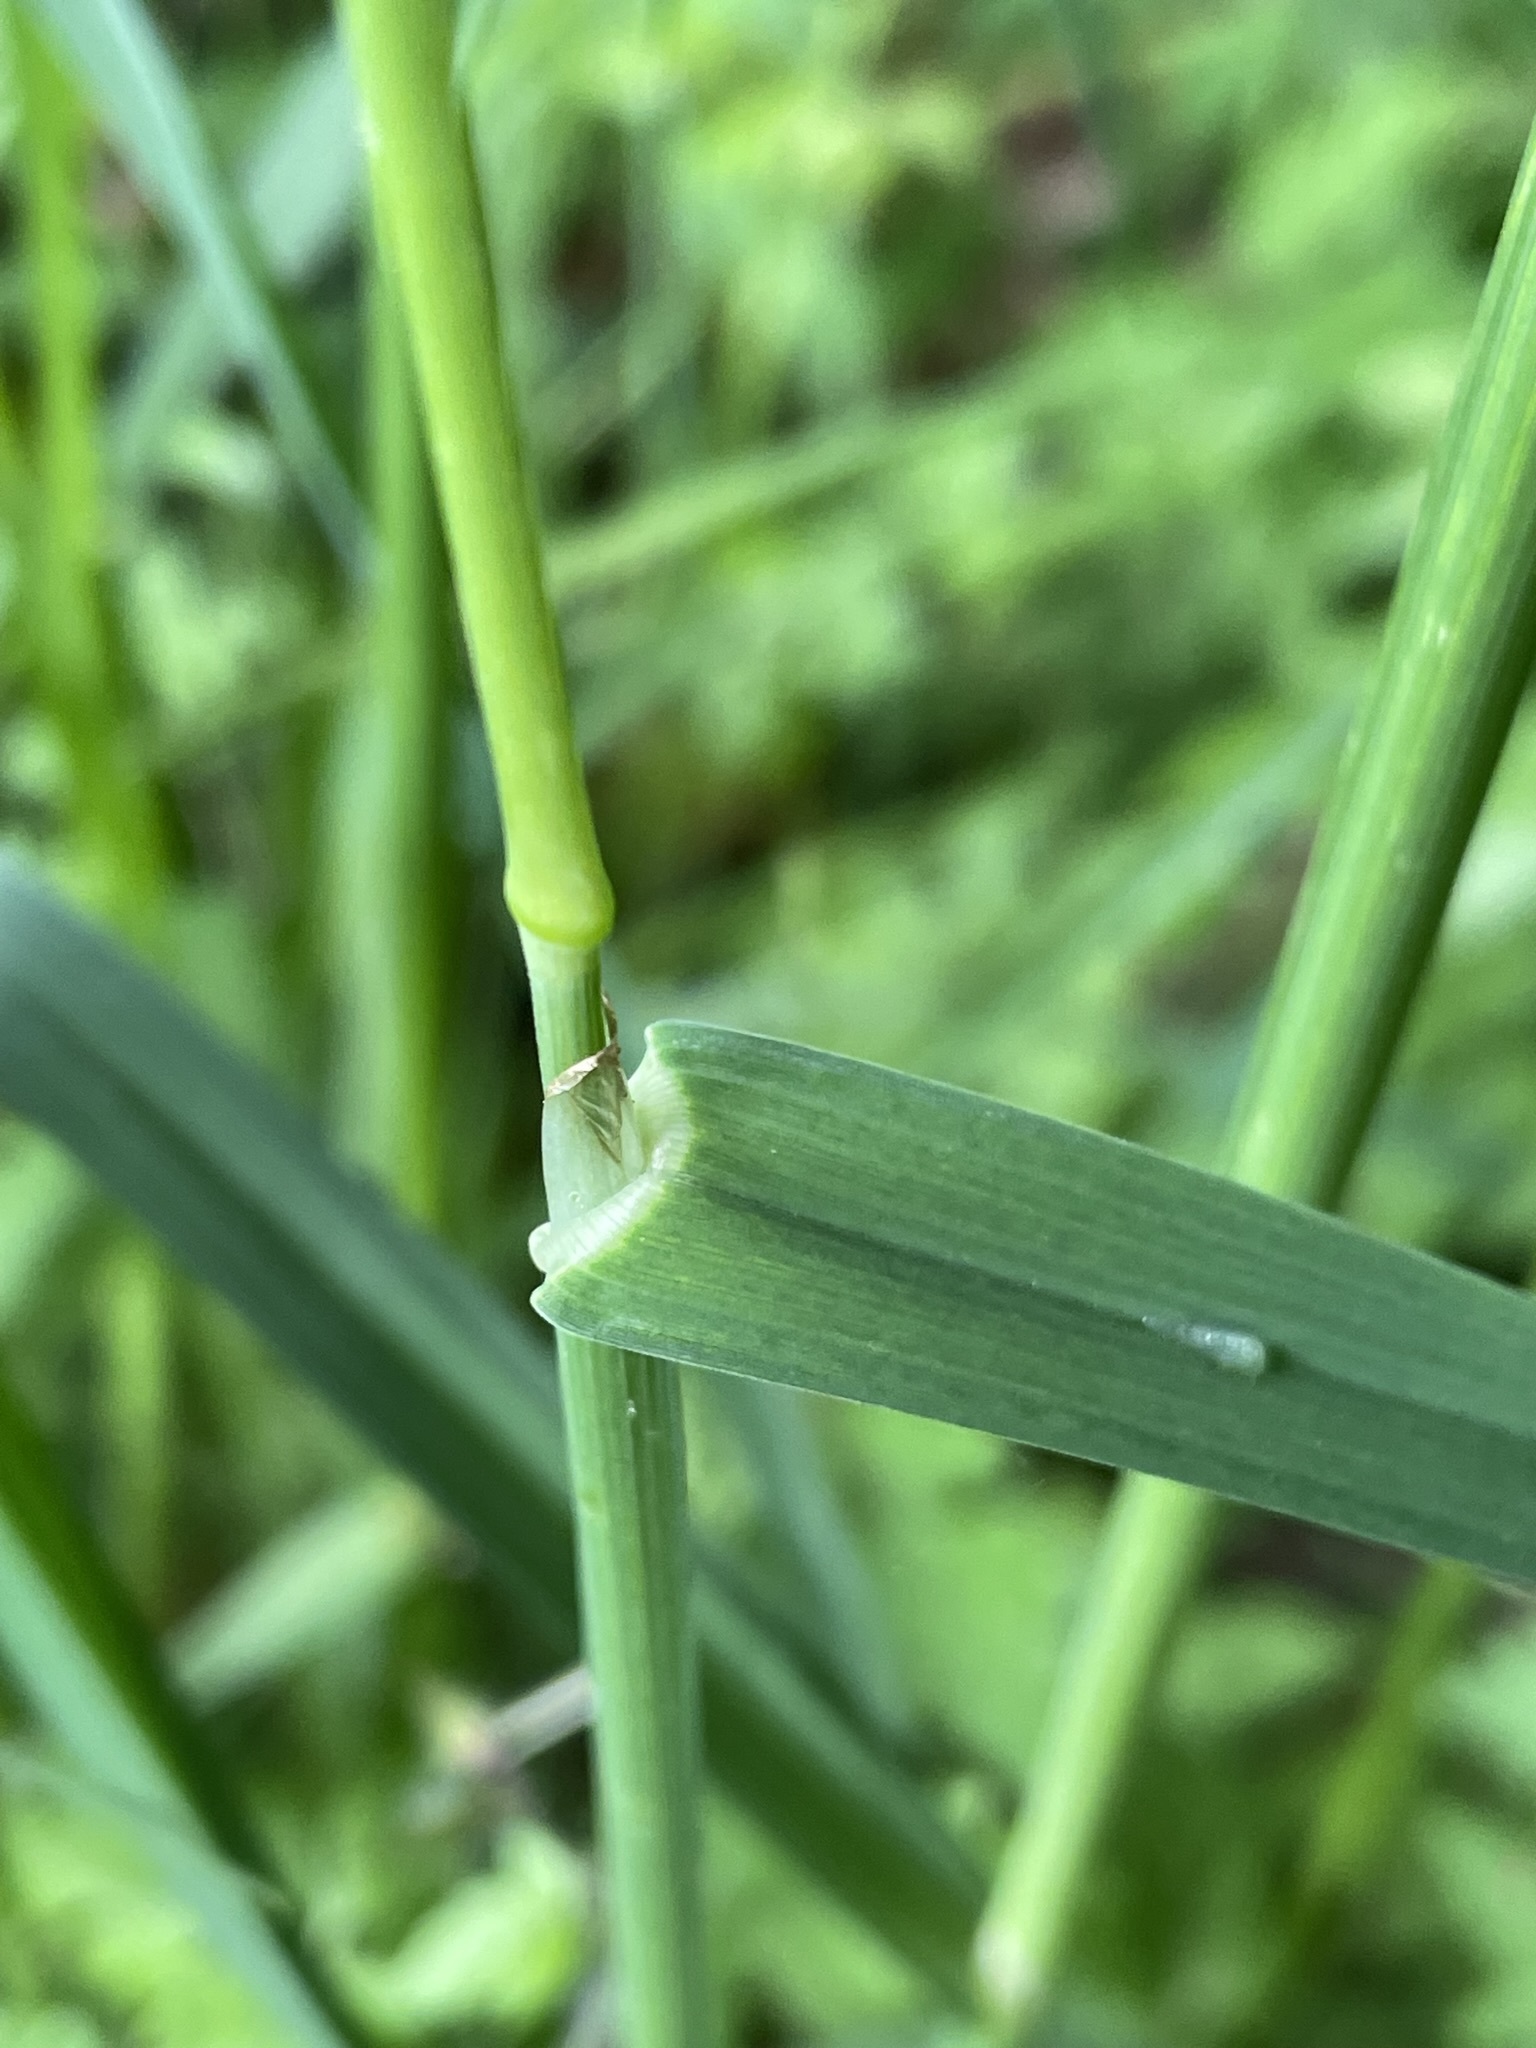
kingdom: Plantae
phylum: Tracheophyta
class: Liliopsida
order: Poales
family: Poaceae
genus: Dactylis
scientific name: Dactylis glomerata
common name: Orchardgrass
